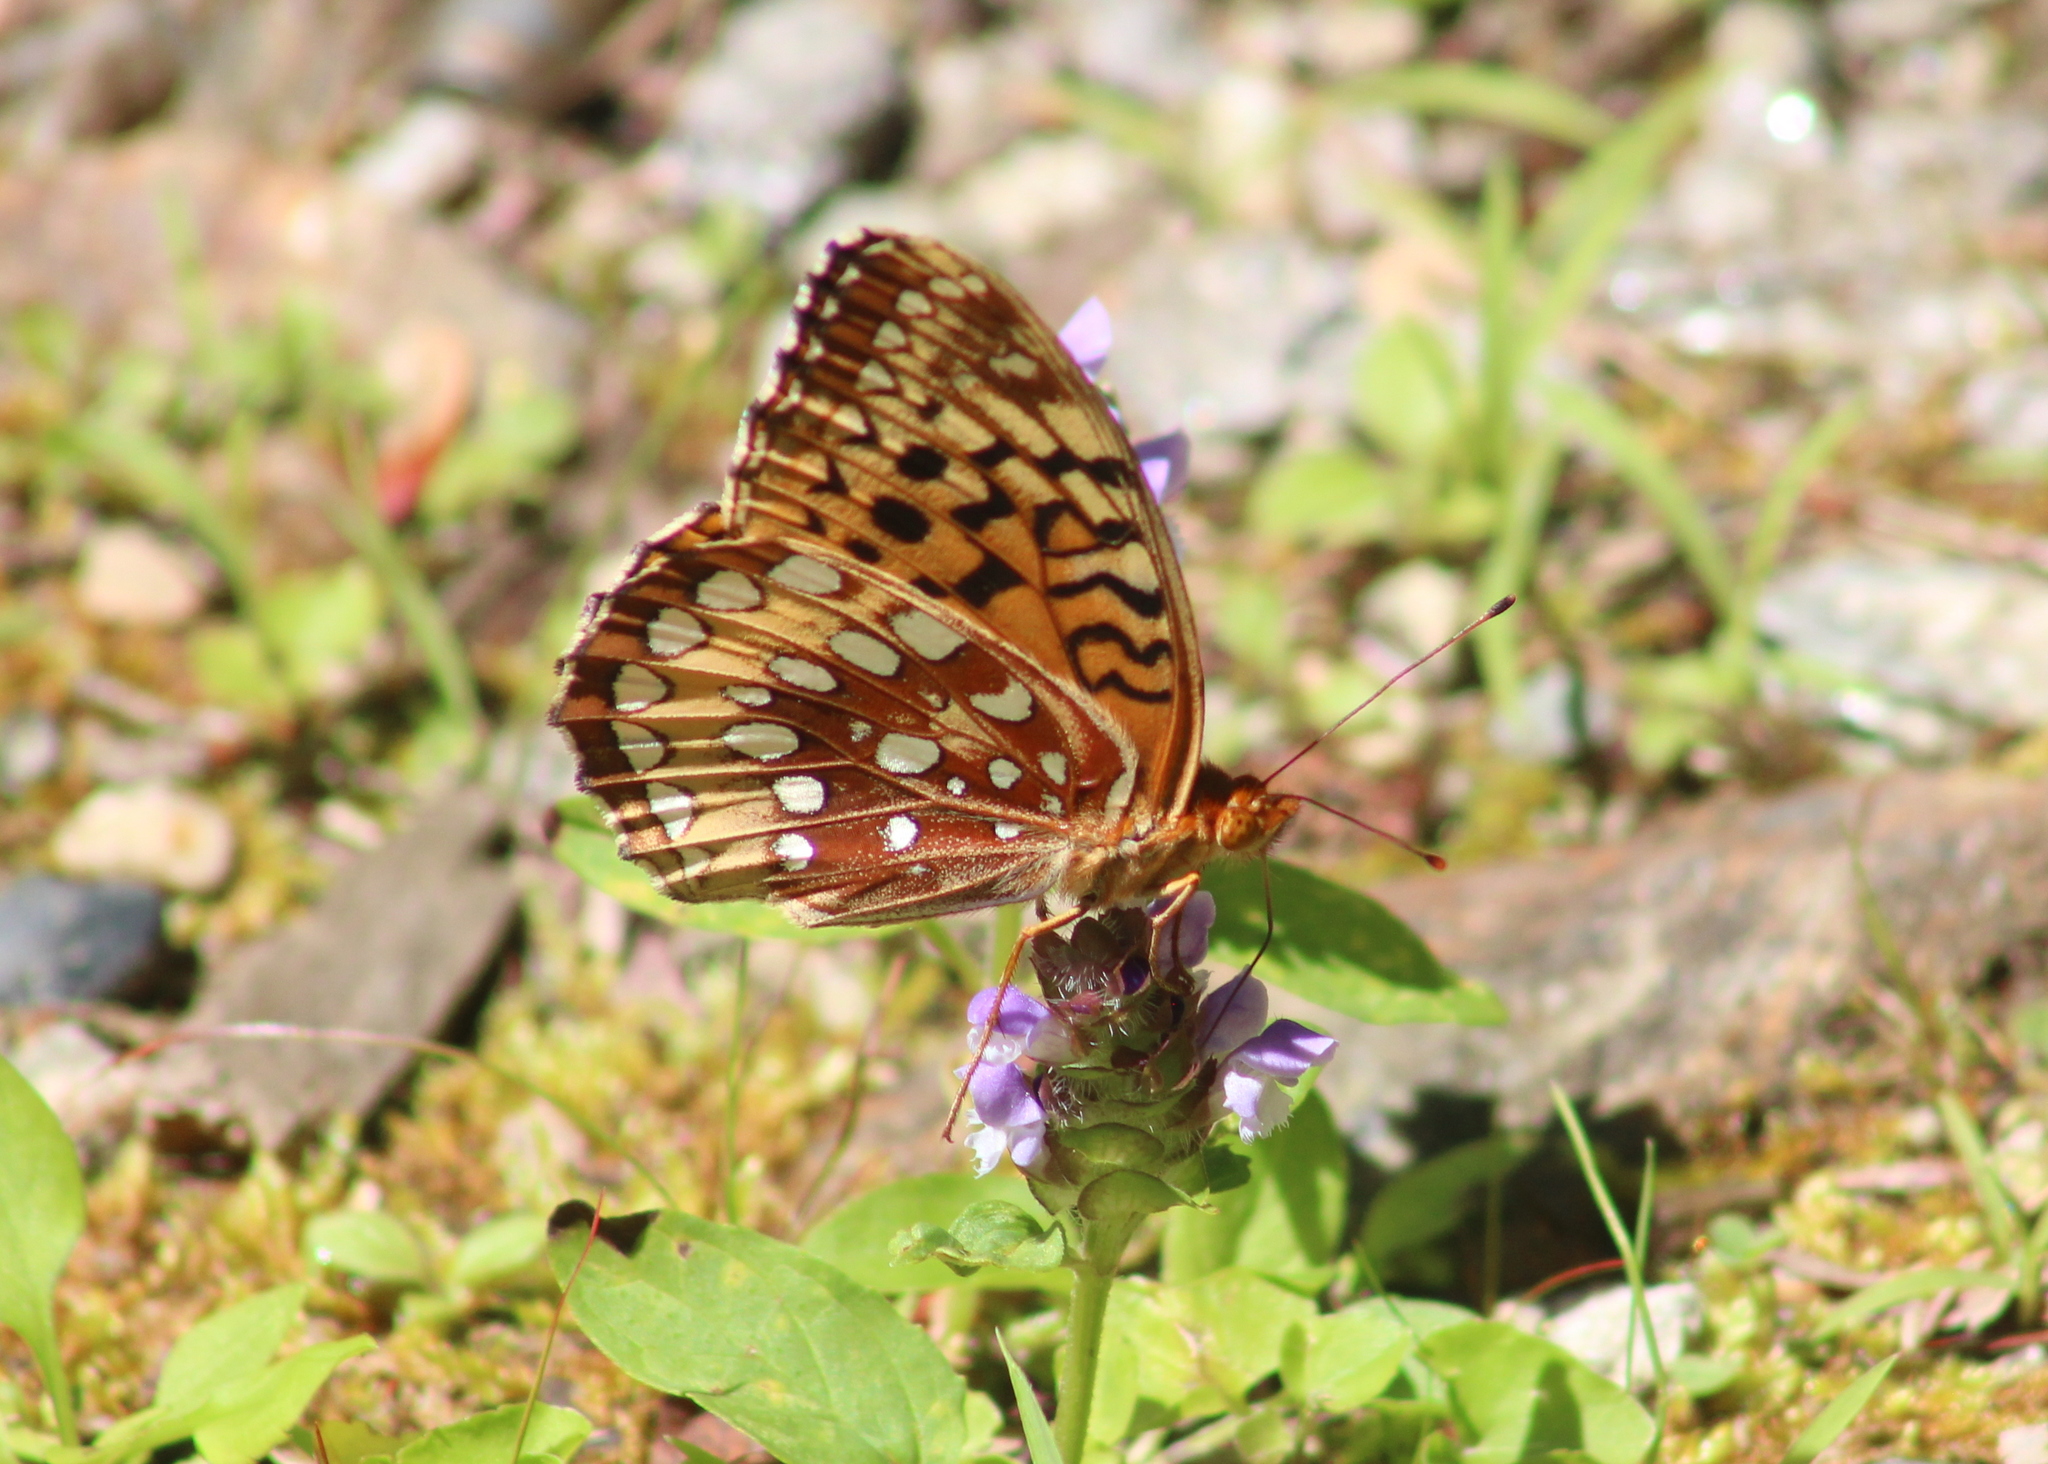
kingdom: Animalia
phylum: Arthropoda
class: Insecta
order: Lepidoptera
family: Nymphalidae
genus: Speyeria
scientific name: Speyeria cybele
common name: Great spangled fritillary
